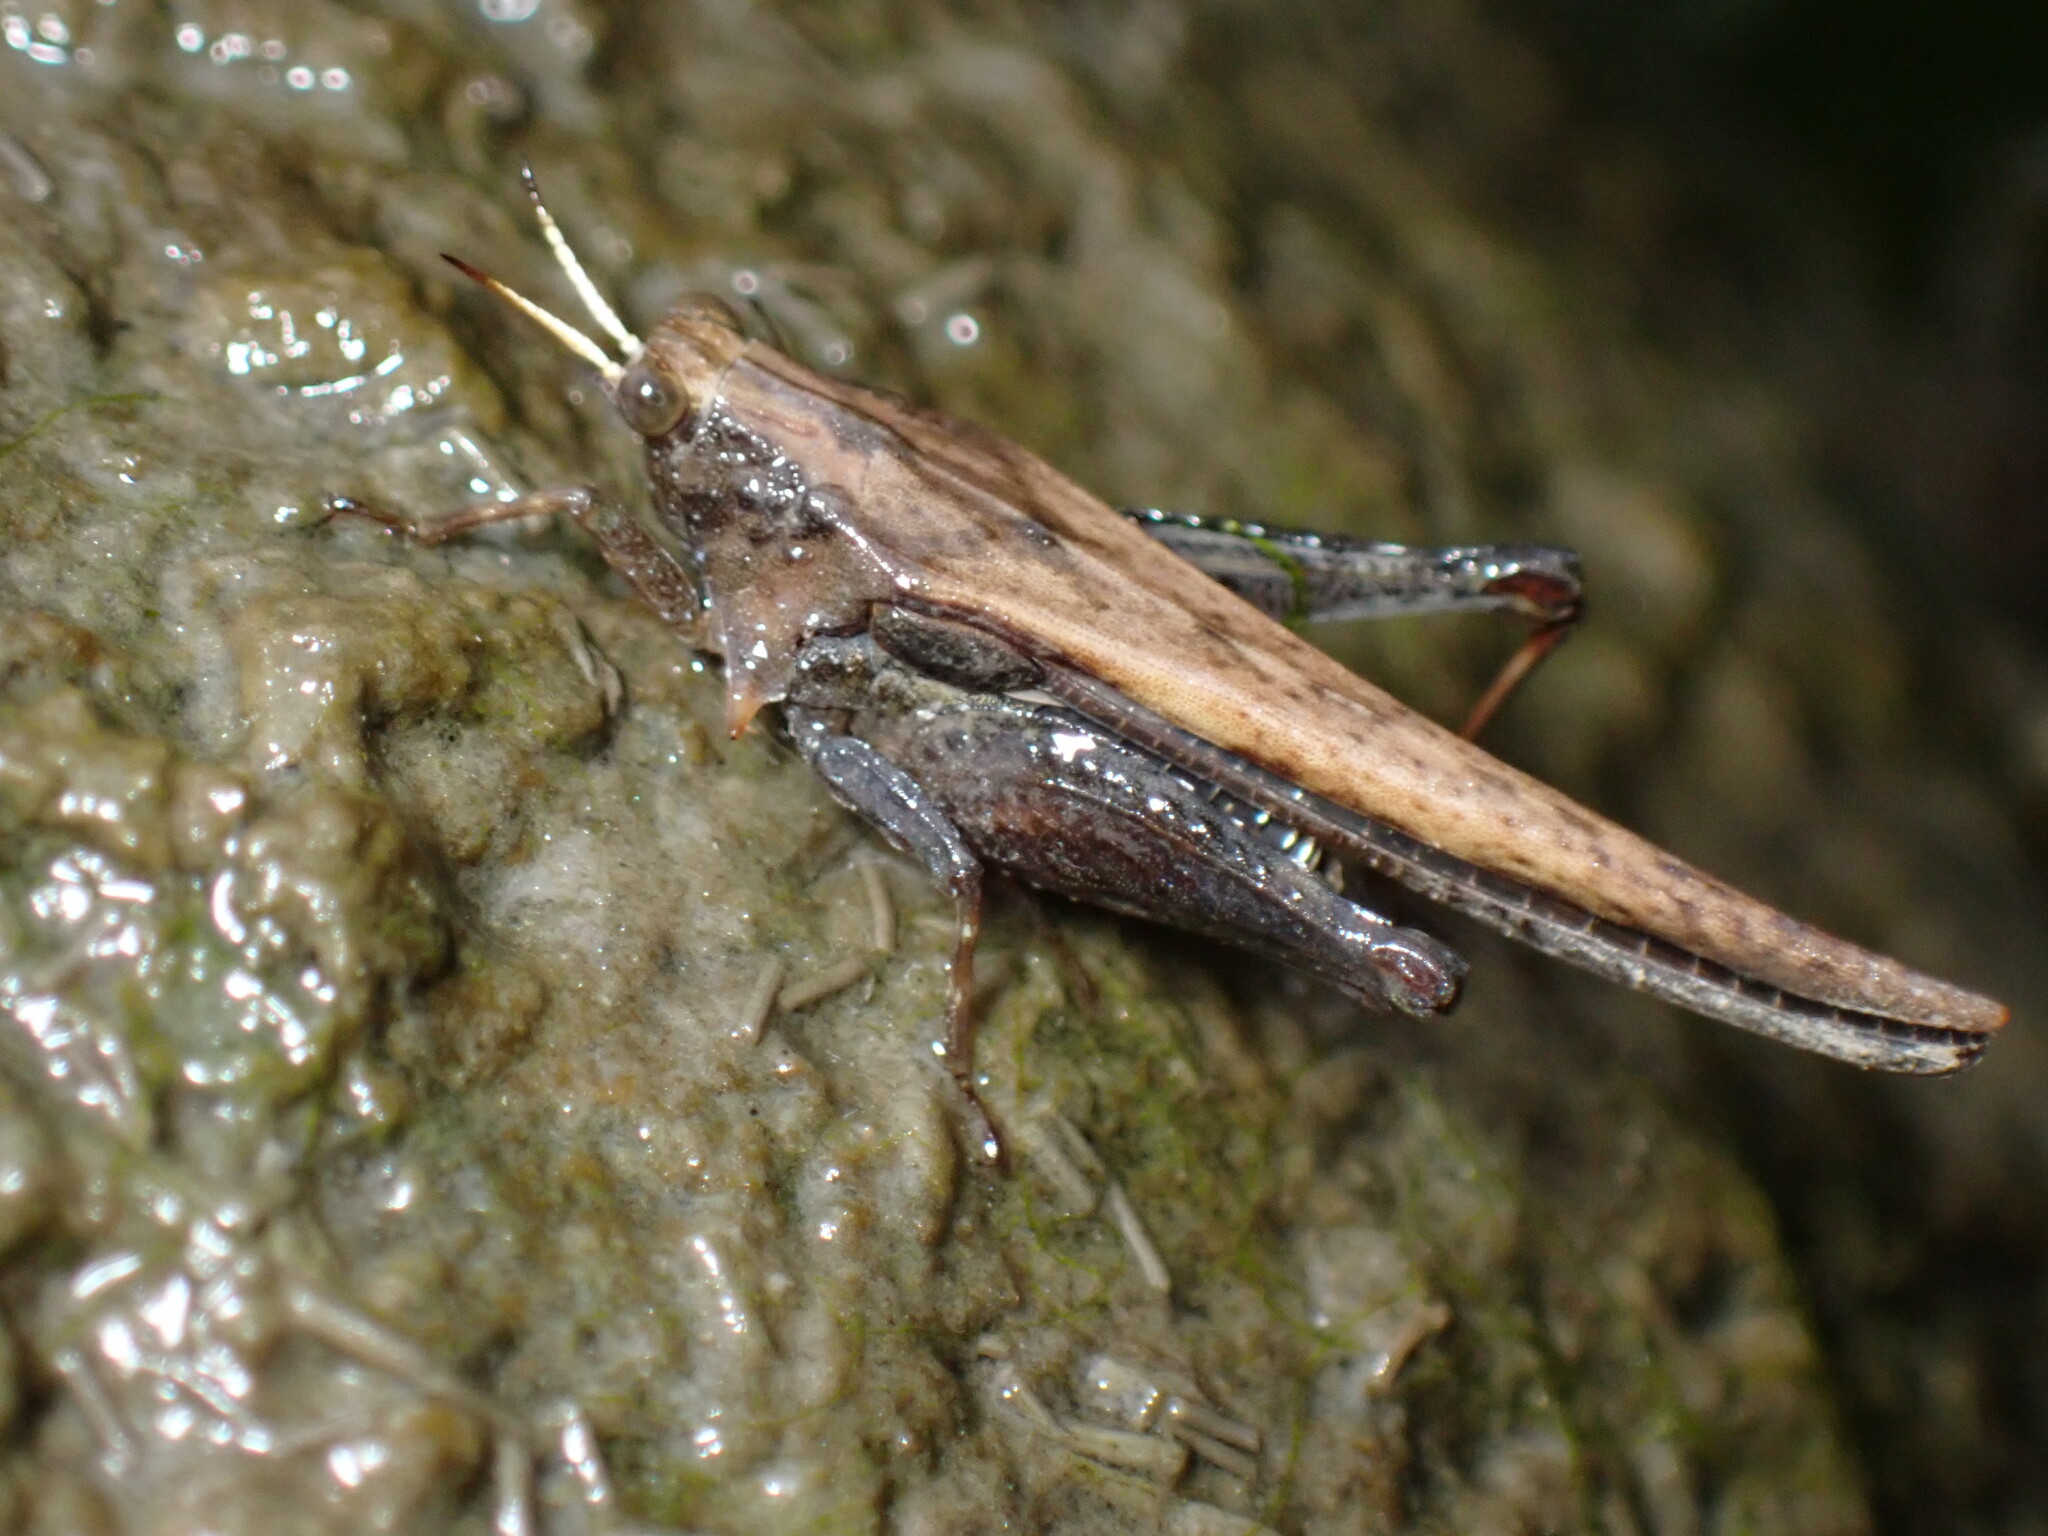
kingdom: Animalia
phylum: Arthropoda
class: Insecta
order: Orthoptera
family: Tetrigidae
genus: Criotettix
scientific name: Criotettix japonicus
